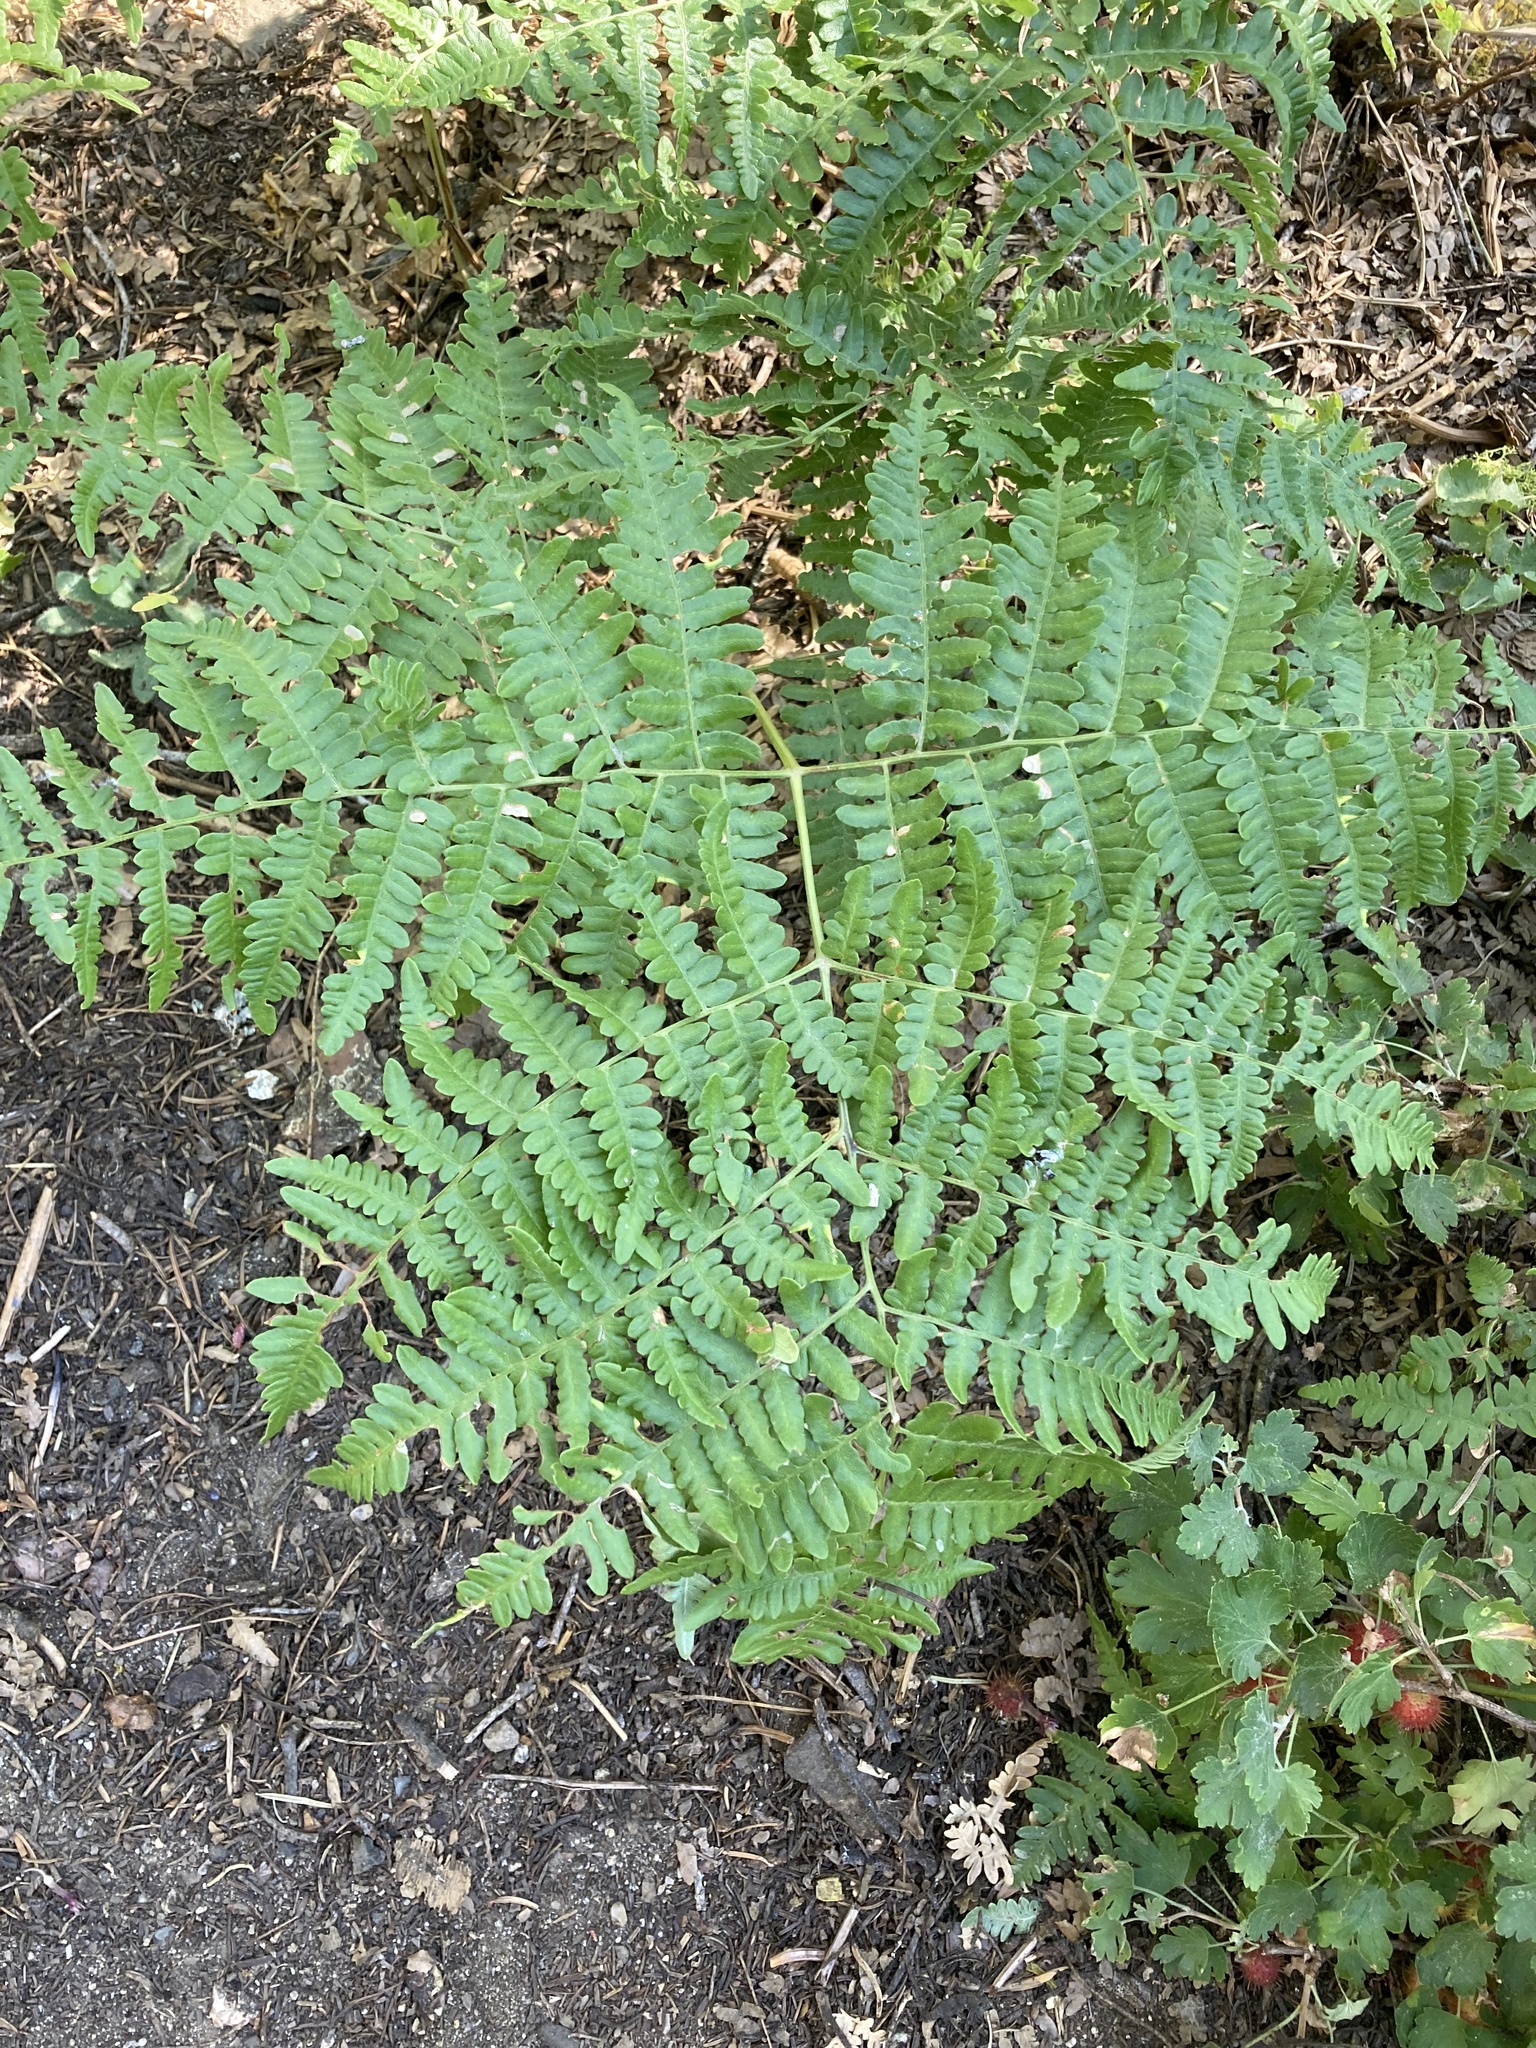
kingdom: Plantae
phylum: Tracheophyta
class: Polypodiopsida
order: Polypodiales
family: Dennstaedtiaceae
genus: Pteridium
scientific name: Pteridium aquilinum
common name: Bracken
